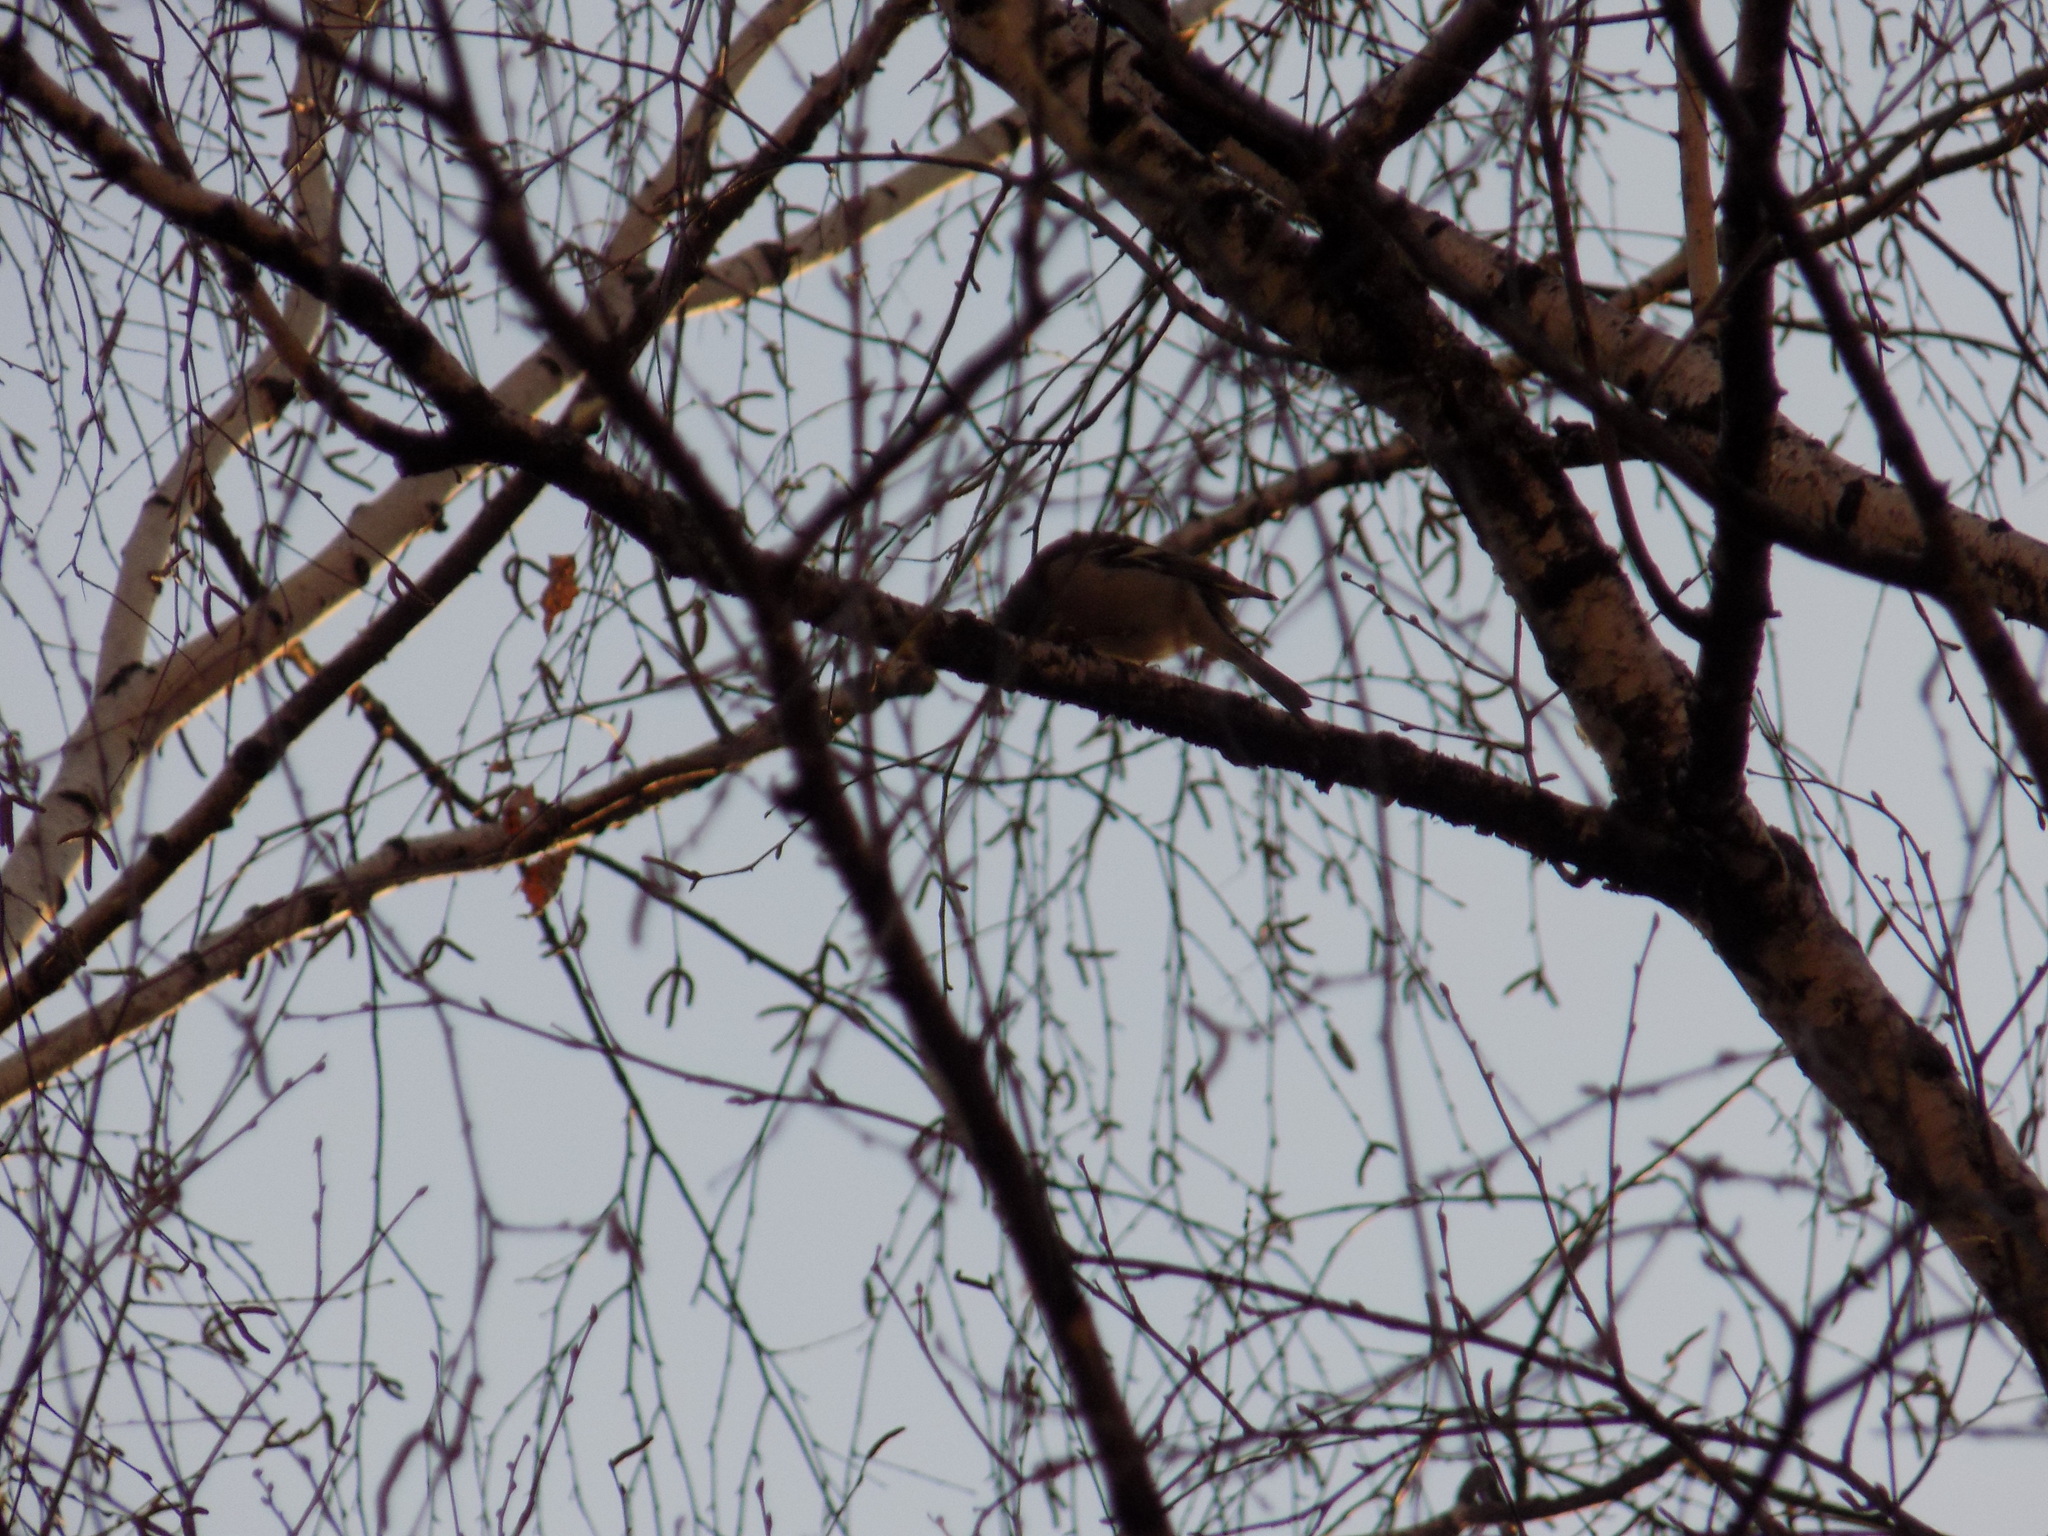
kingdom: Animalia
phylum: Chordata
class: Aves
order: Passeriformes
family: Fringillidae
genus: Fringilla
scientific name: Fringilla coelebs
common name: Common chaffinch
